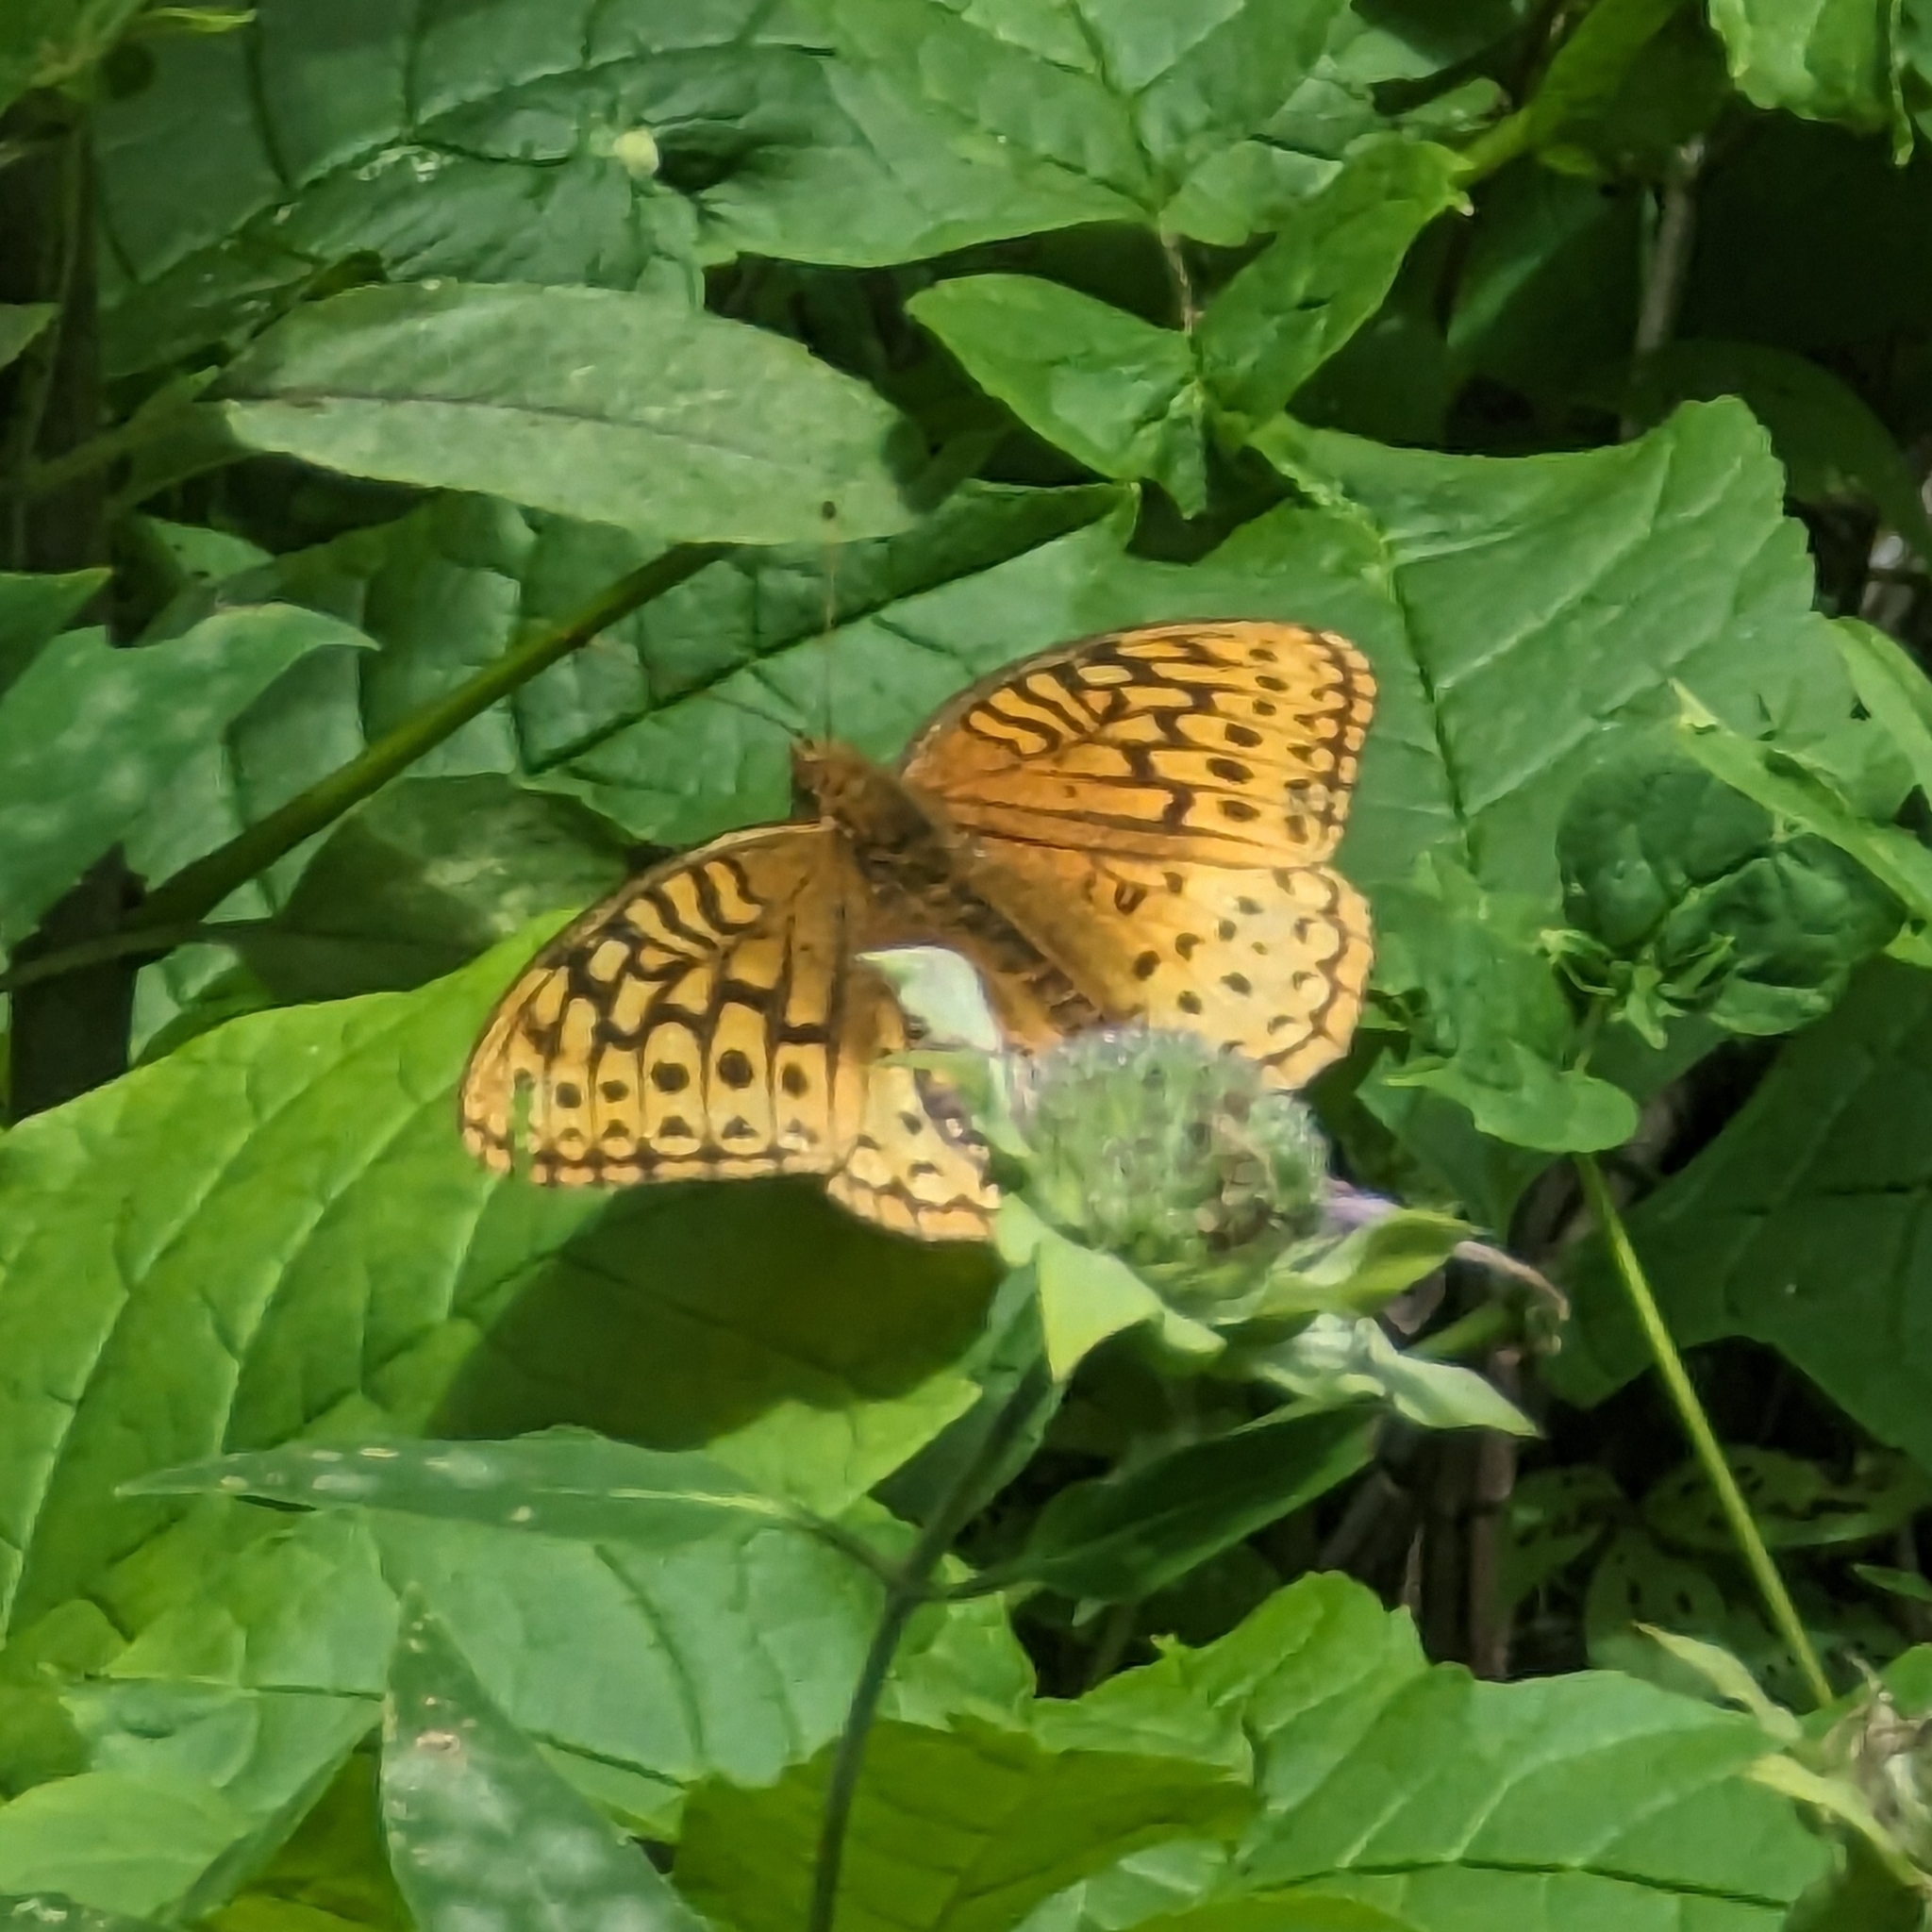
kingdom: Animalia
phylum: Arthropoda
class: Insecta
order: Lepidoptera
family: Nymphalidae
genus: Speyeria
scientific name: Speyeria cybele
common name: Great spangled fritillary
